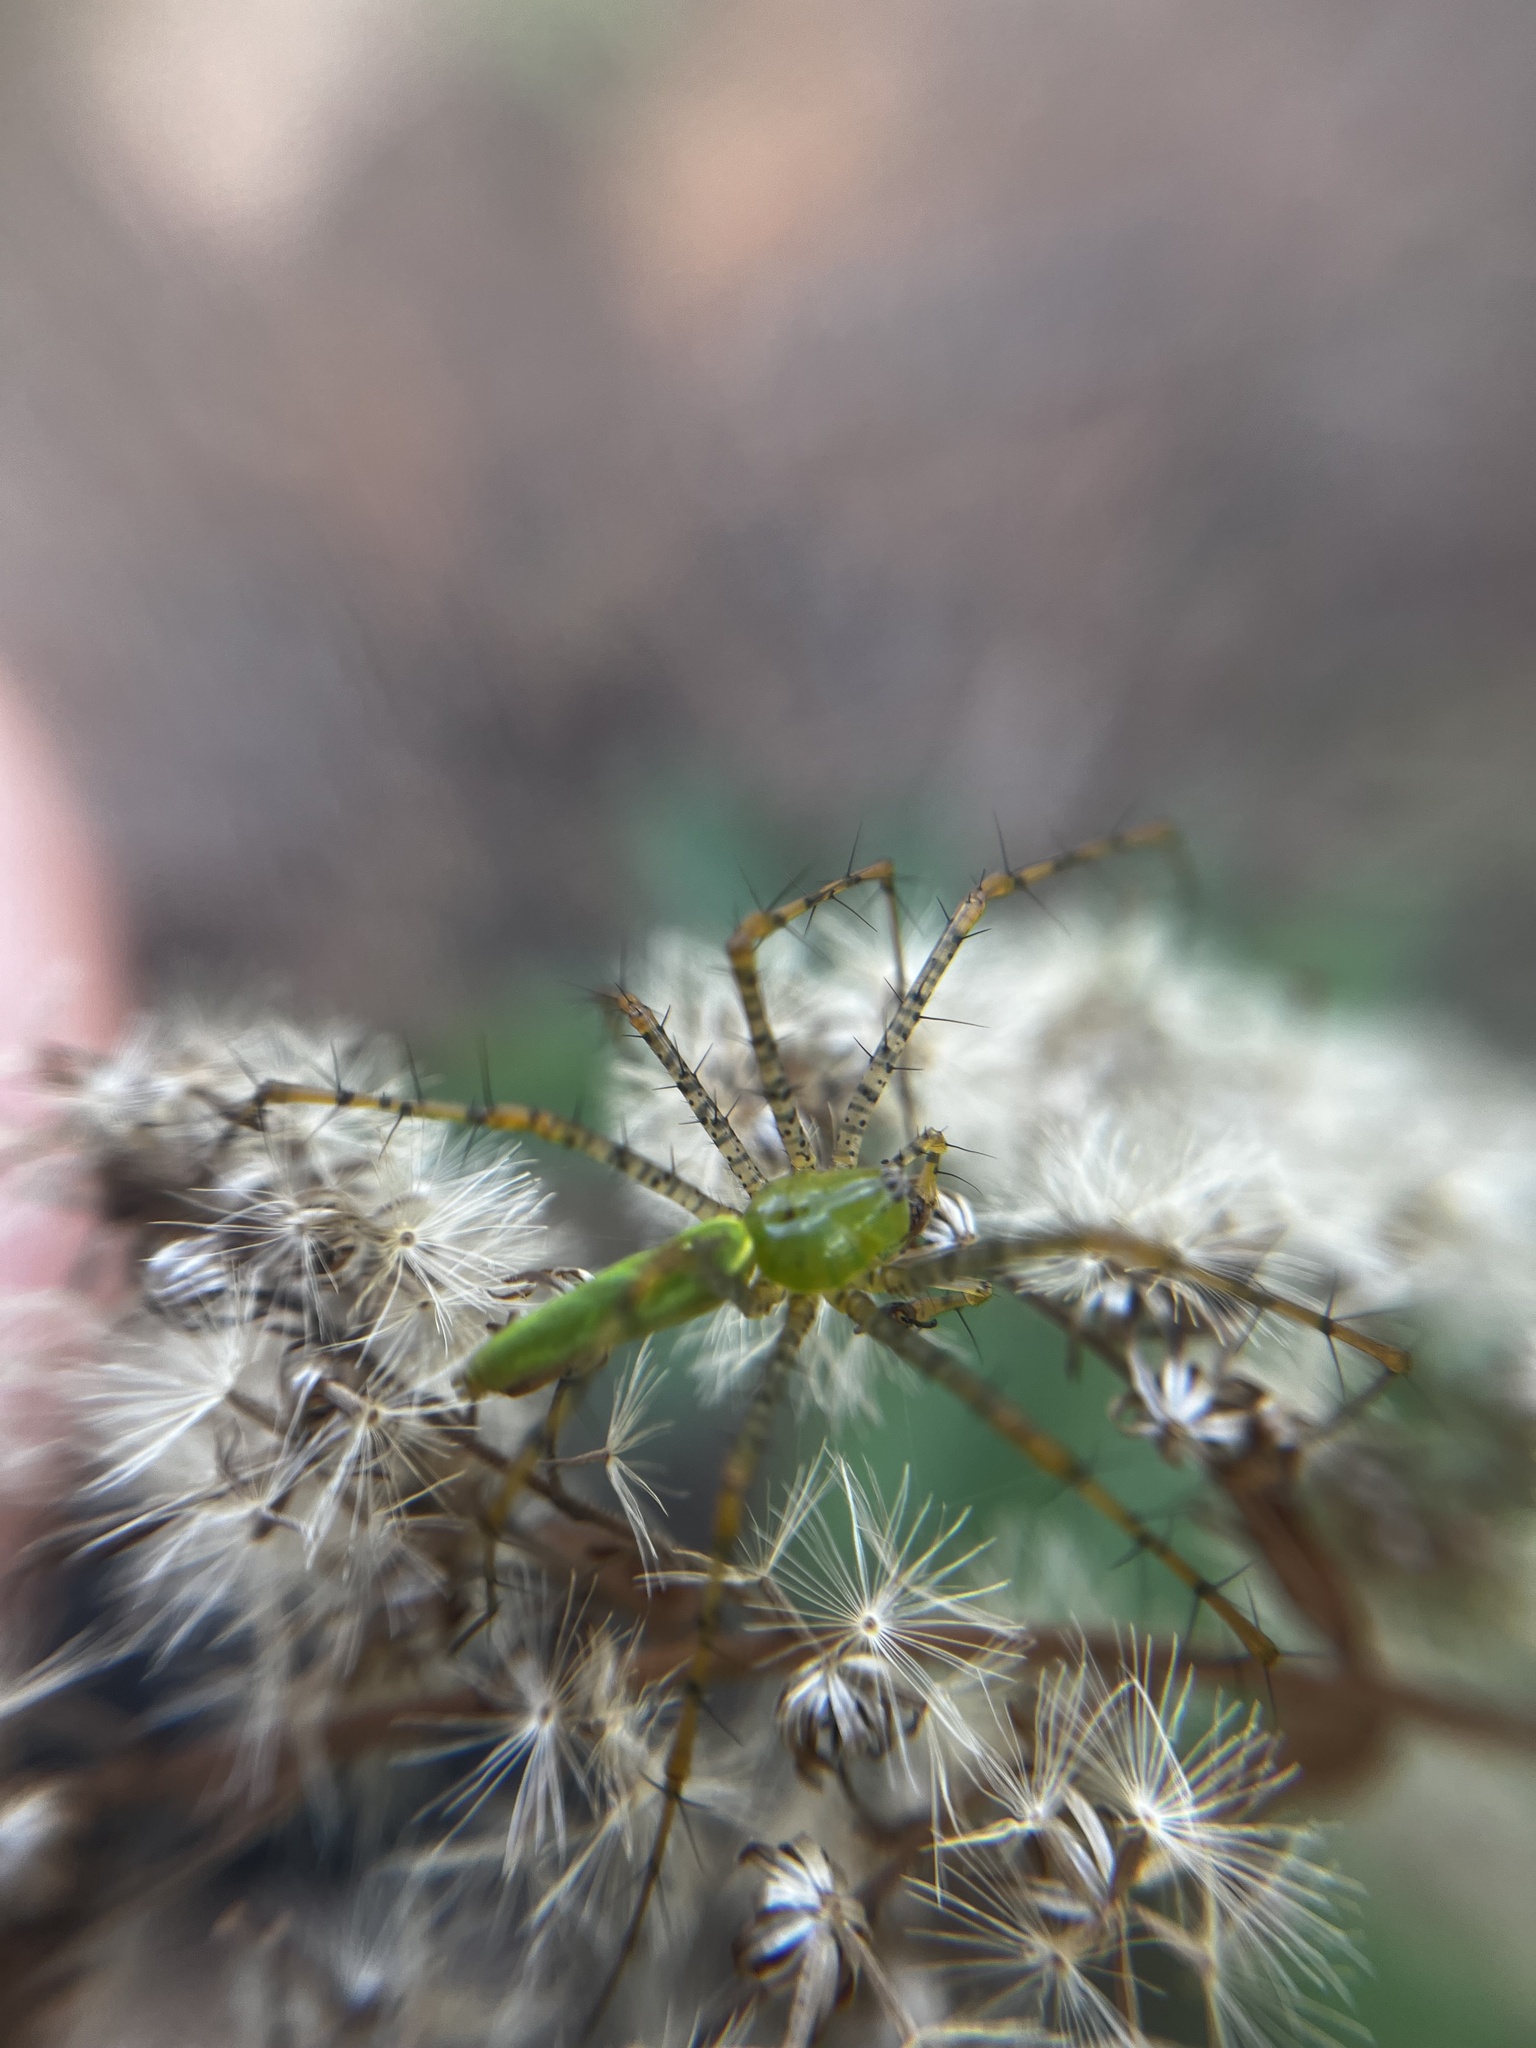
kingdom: Animalia
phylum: Arthropoda
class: Arachnida
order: Araneae
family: Oxyopidae
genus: Peucetia
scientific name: Peucetia viridans
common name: Lynx spiders
